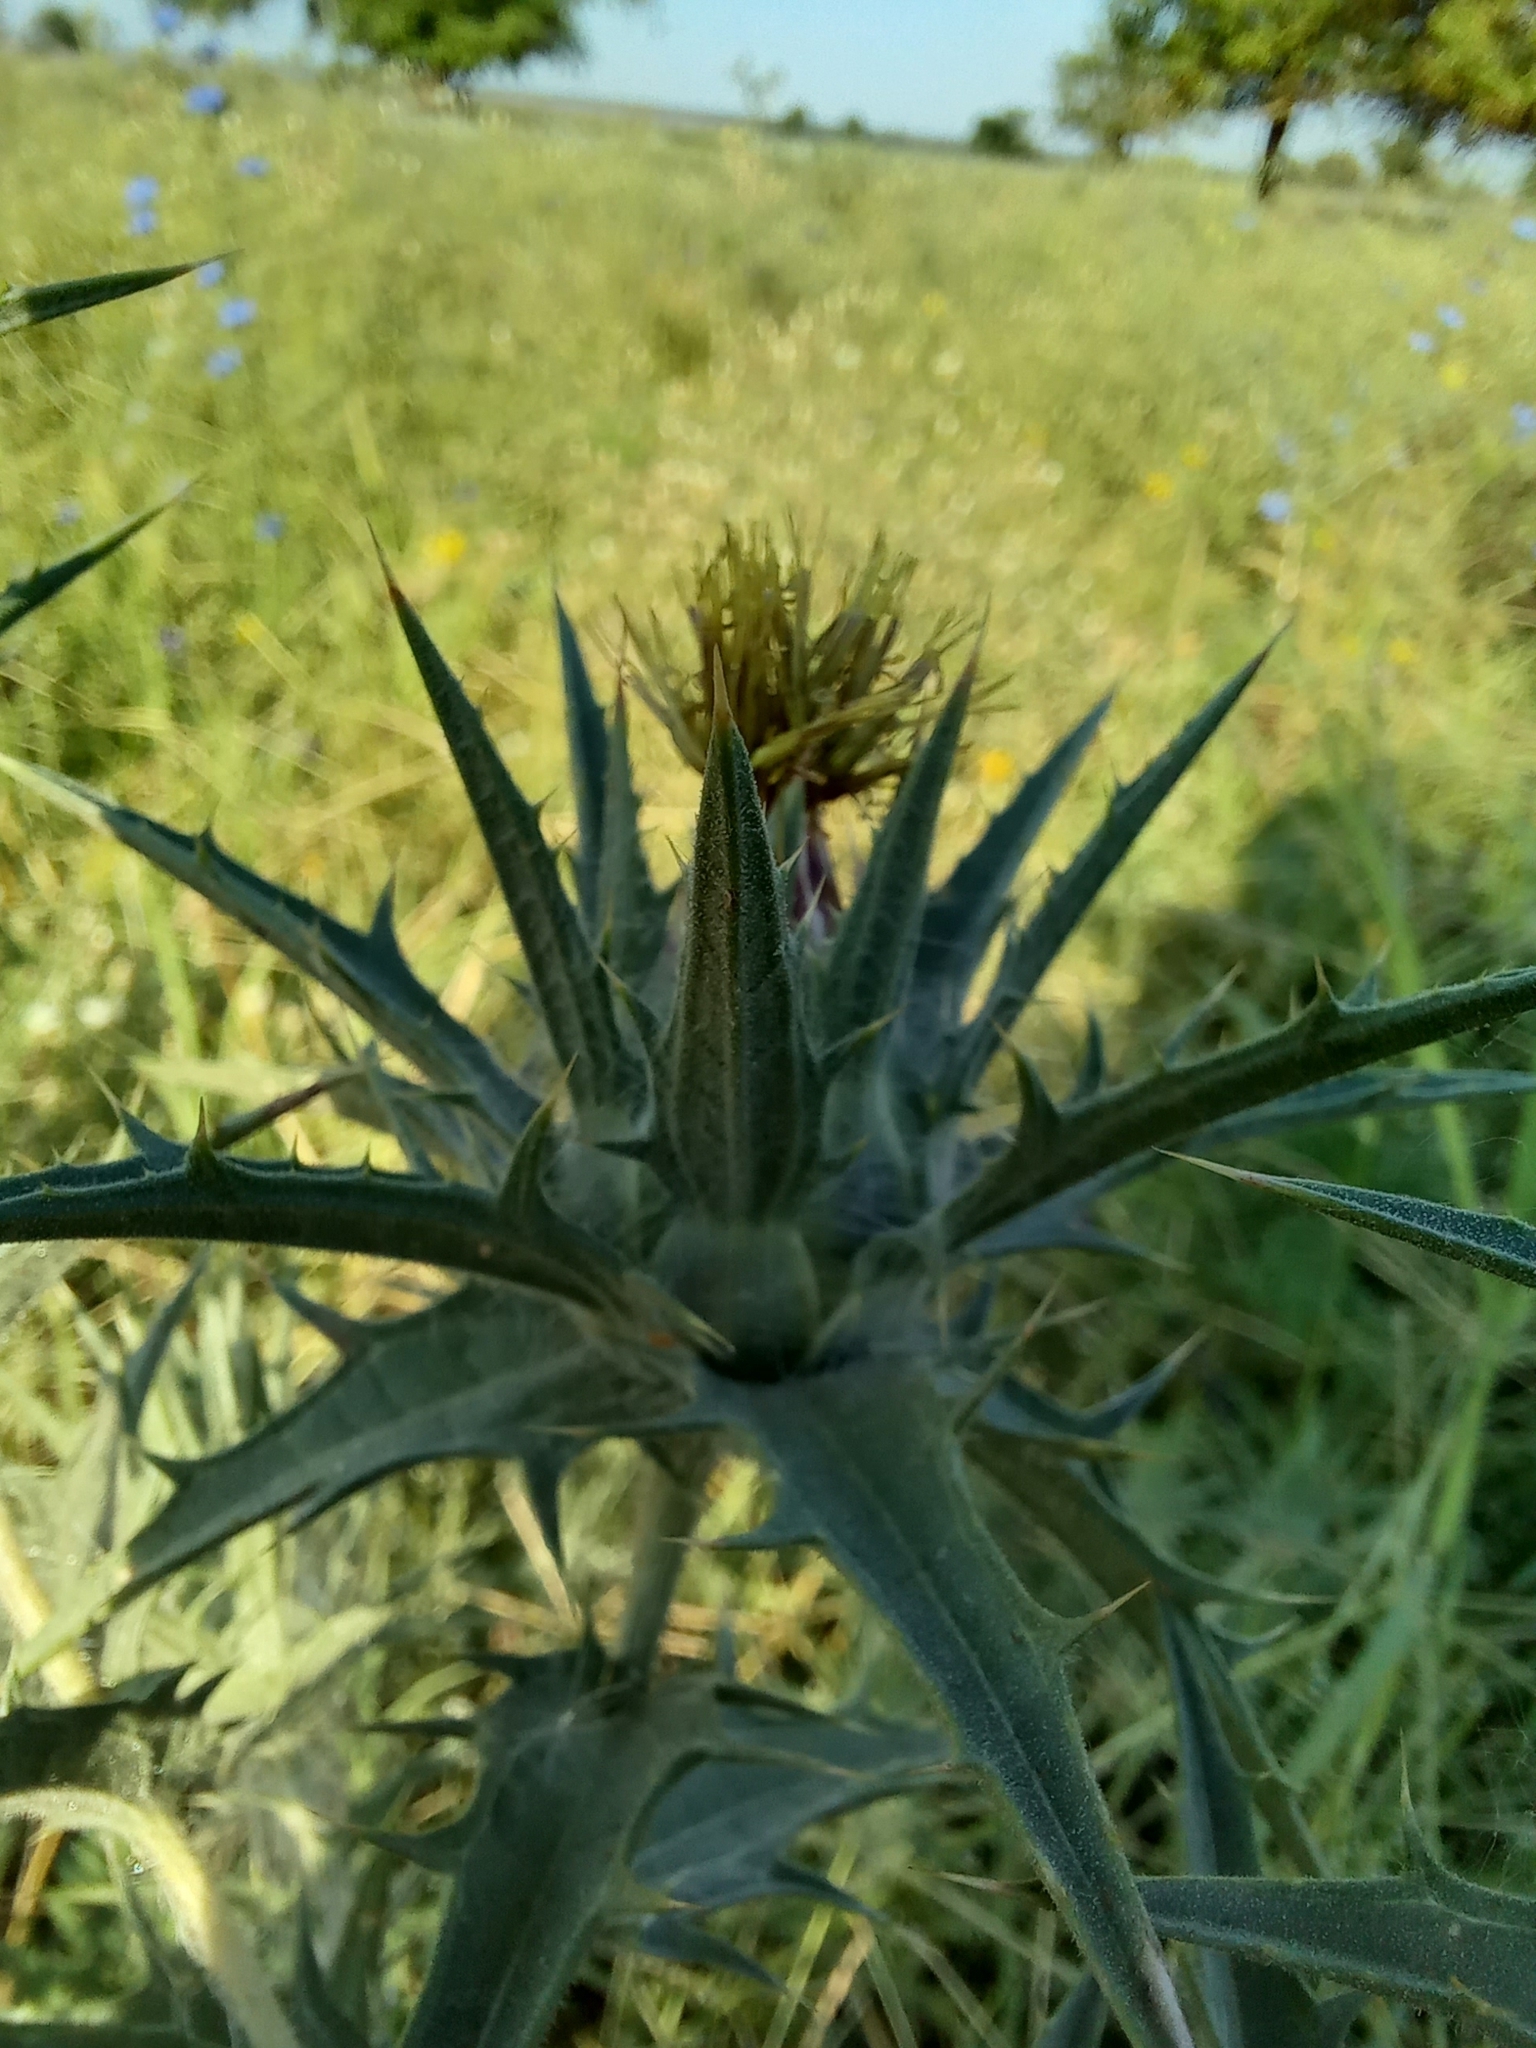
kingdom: Plantae
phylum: Tracheophyta
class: Magnoliopsida
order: Asterales
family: Asteraceae
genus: Carthamus
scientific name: Carthamus lanatus
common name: Downy safflower
